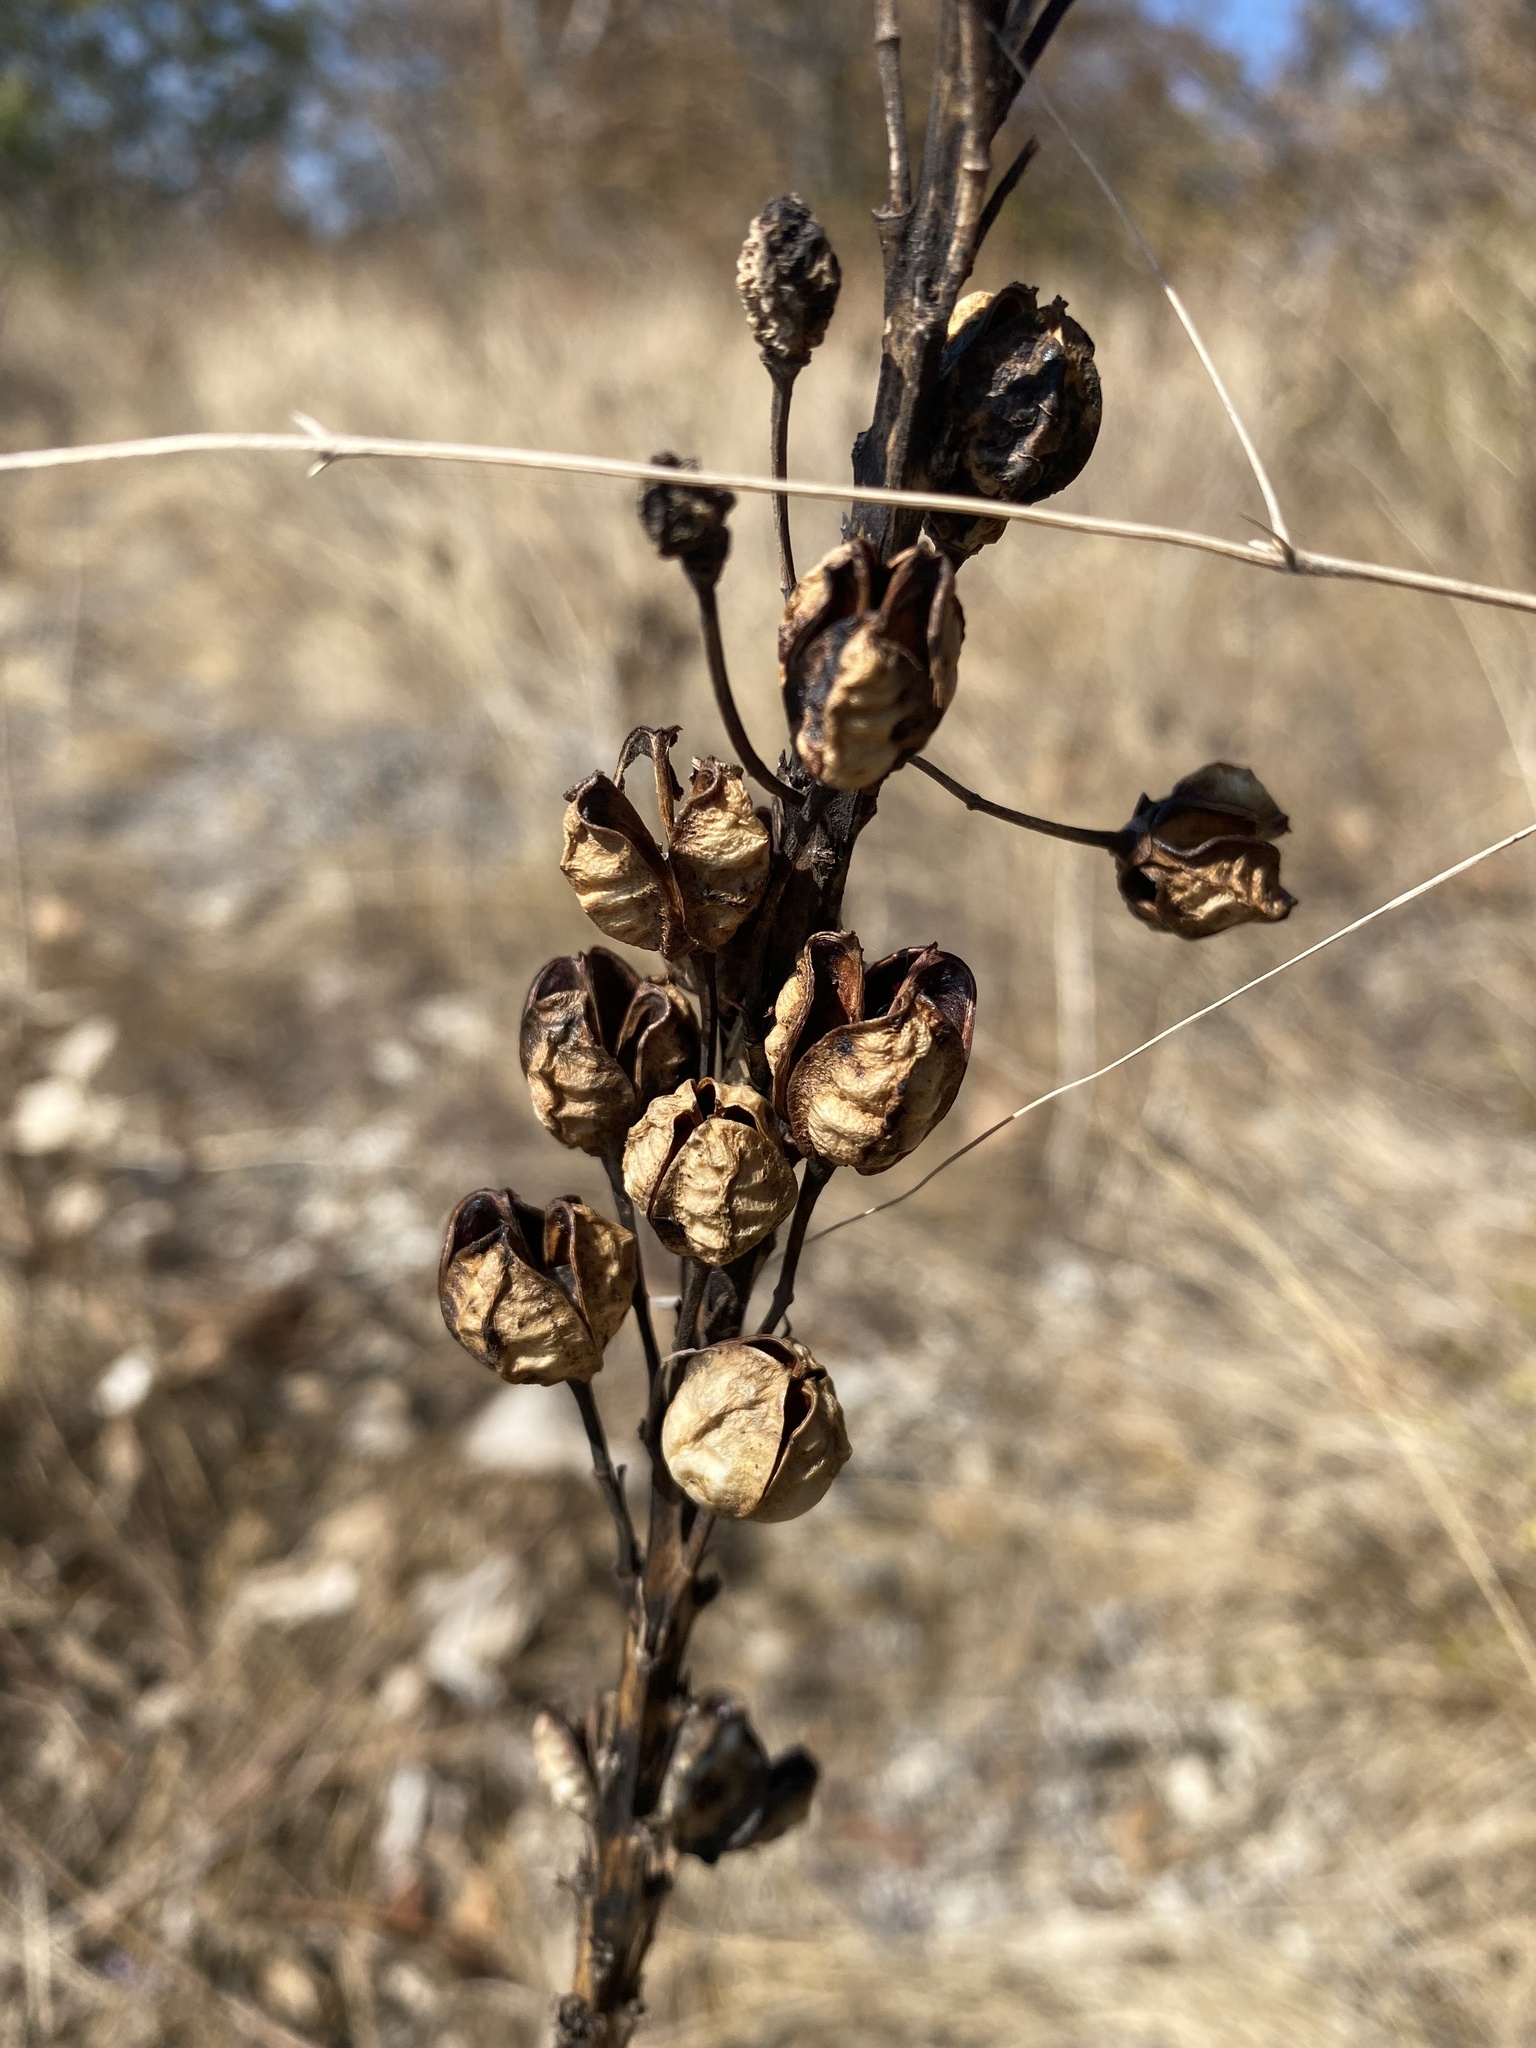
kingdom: Plantae
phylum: Tracheophyta
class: Liliopsida
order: Asparagales
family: Asphodelaceae
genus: Asphodeline
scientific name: Asphodeline lutea
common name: Yellow asphodel
